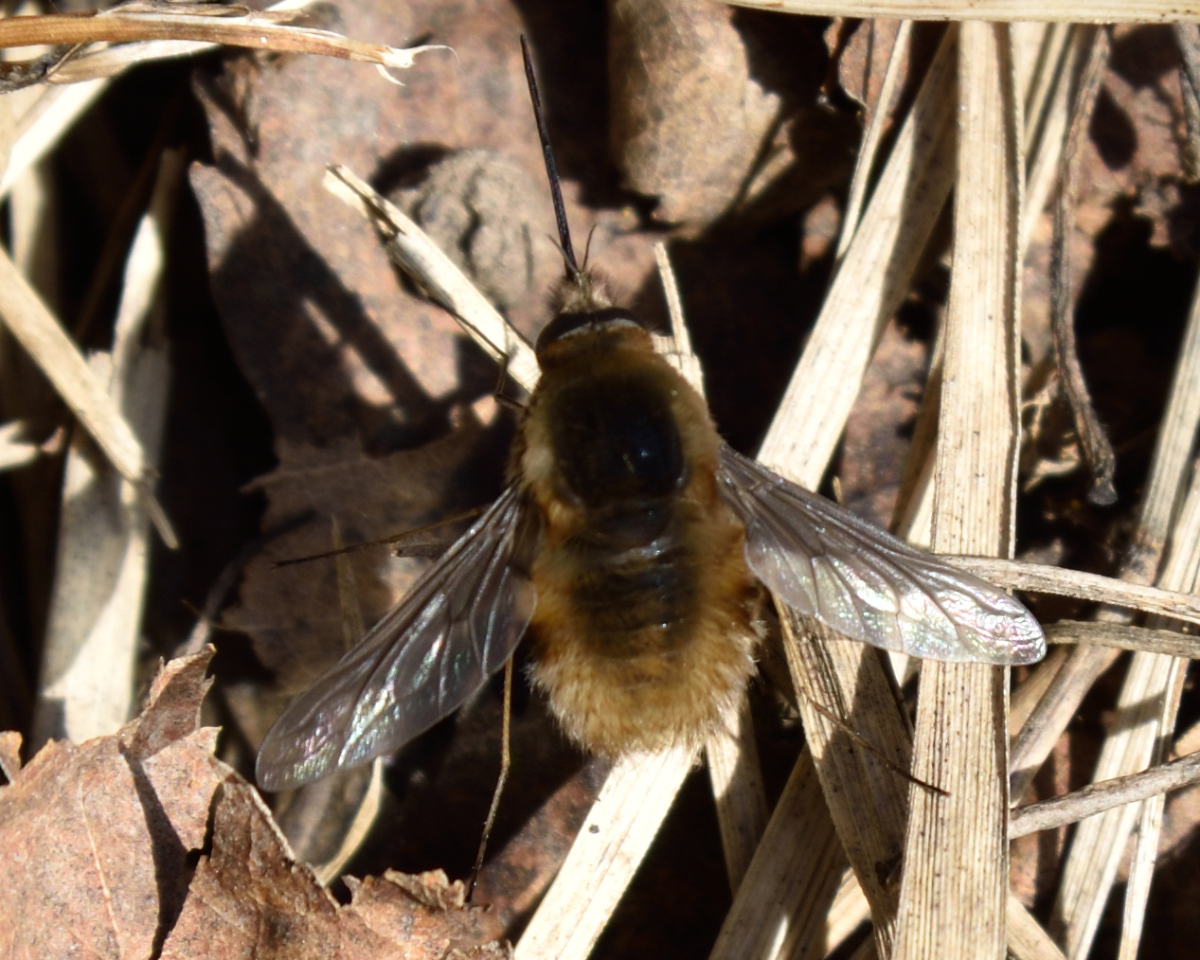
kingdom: Animalia
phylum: Arthropoda
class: Insecta
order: Diptera
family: Bombyliidae
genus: Bombylius
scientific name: Bombylius major
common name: Bee fly
